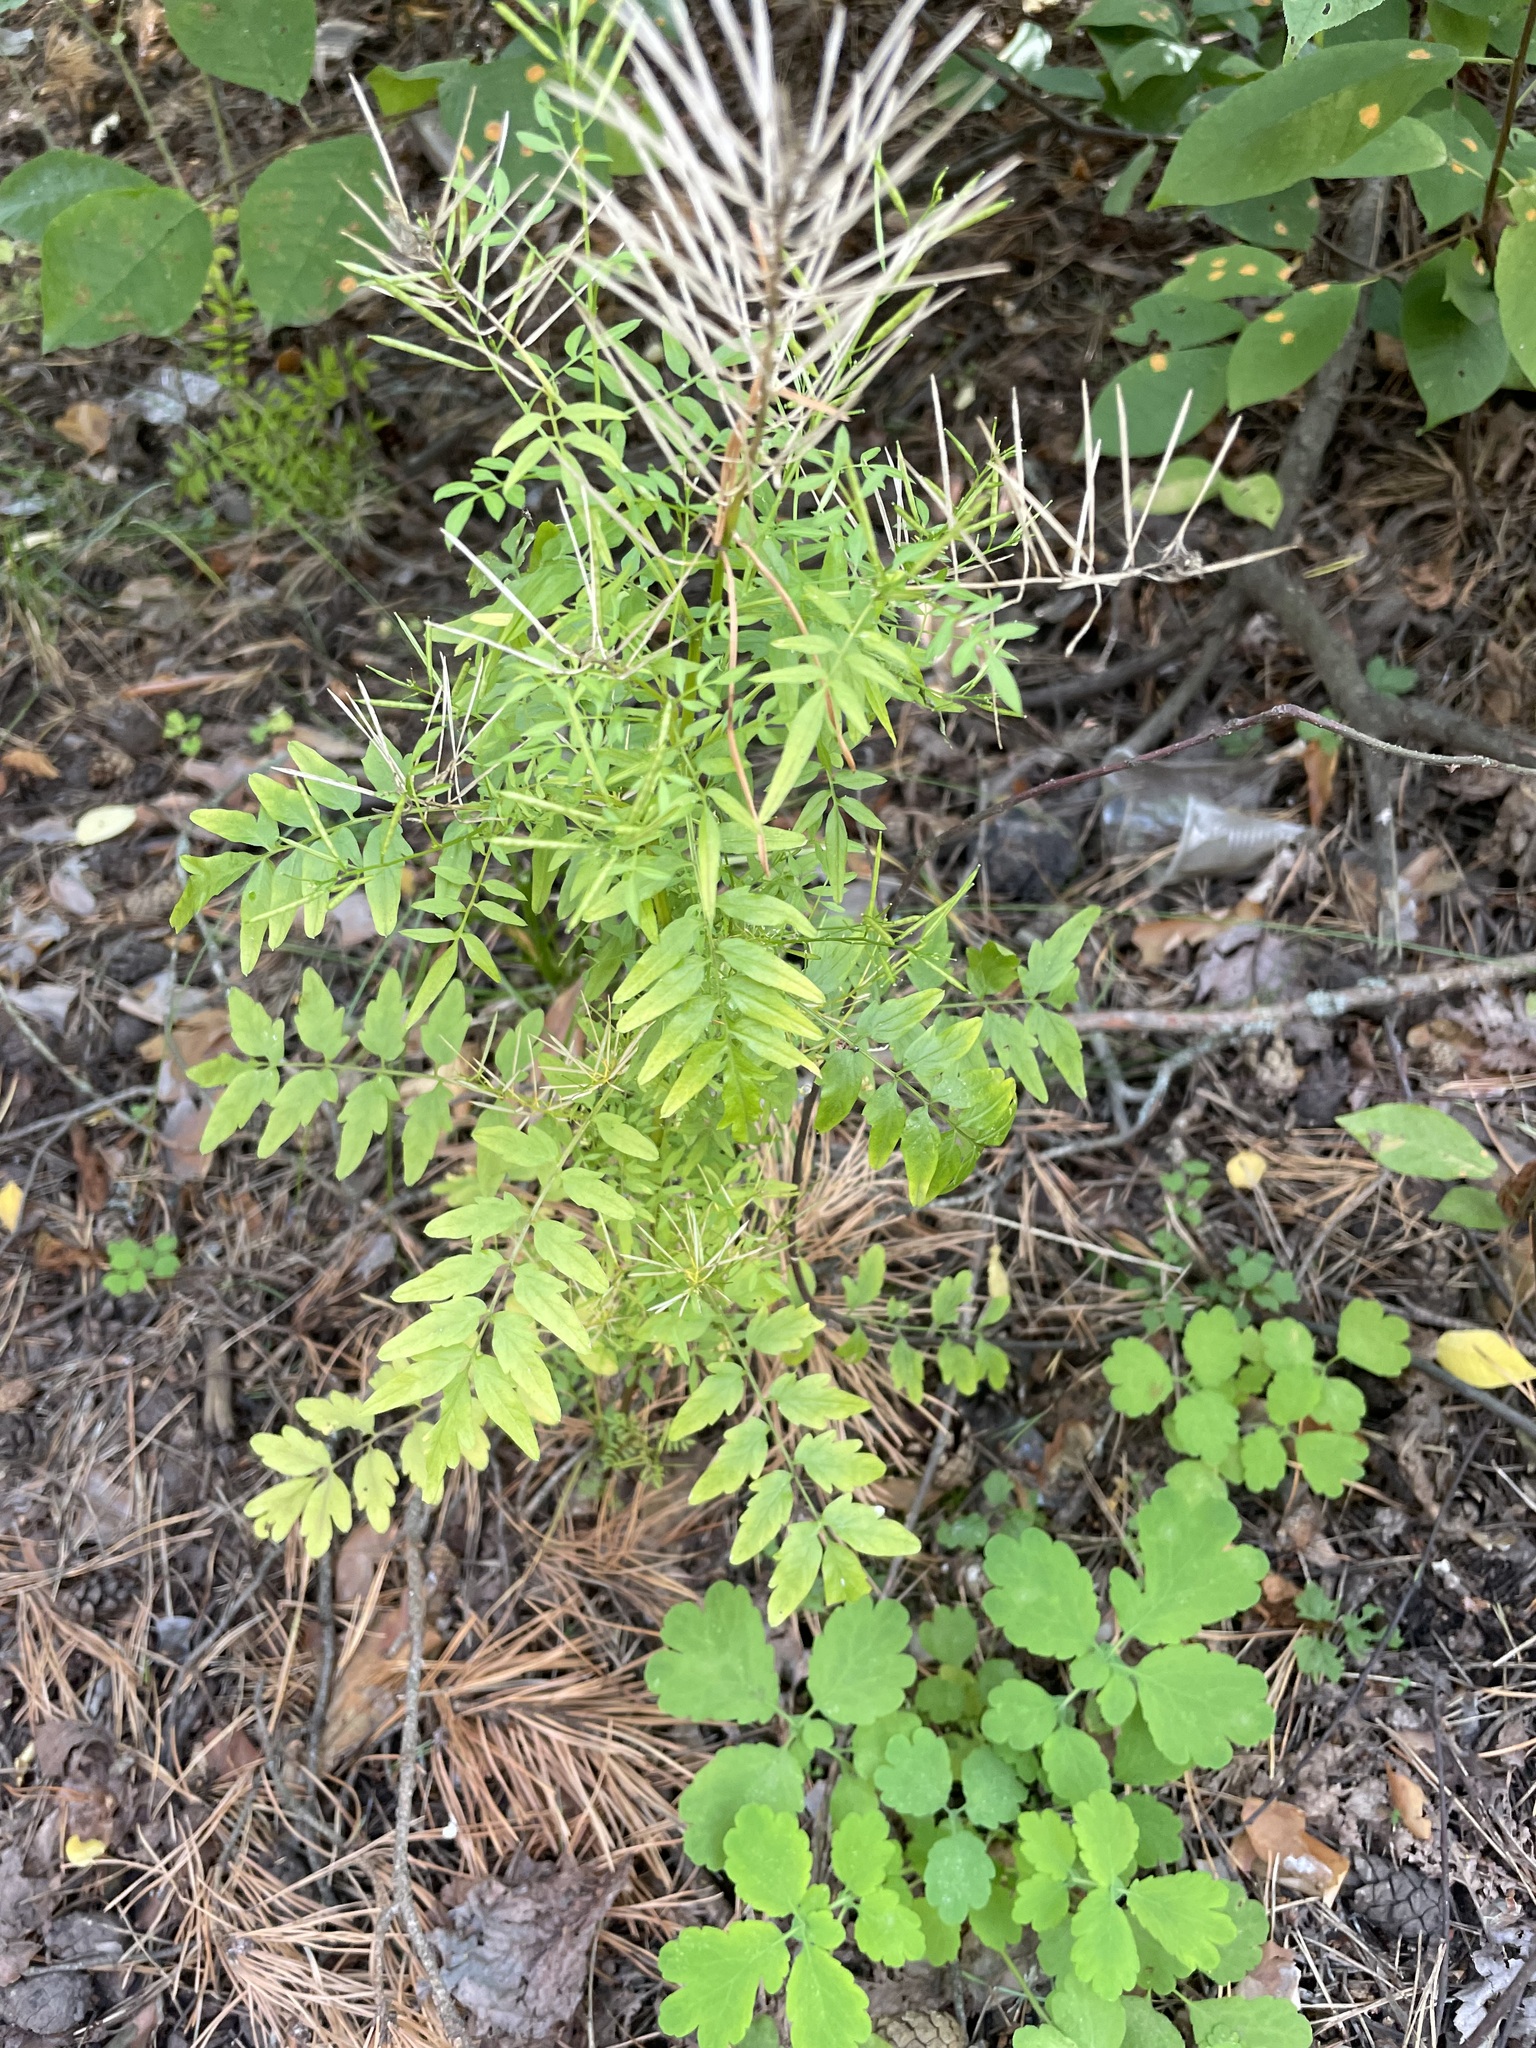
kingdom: Plantae
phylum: Tracheophyta
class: Magnoliopsida
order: Brassicales
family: Brassicaceae
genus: Cardamine
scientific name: Cardamine impatiens
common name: Narrow-leaved bitter-cress
